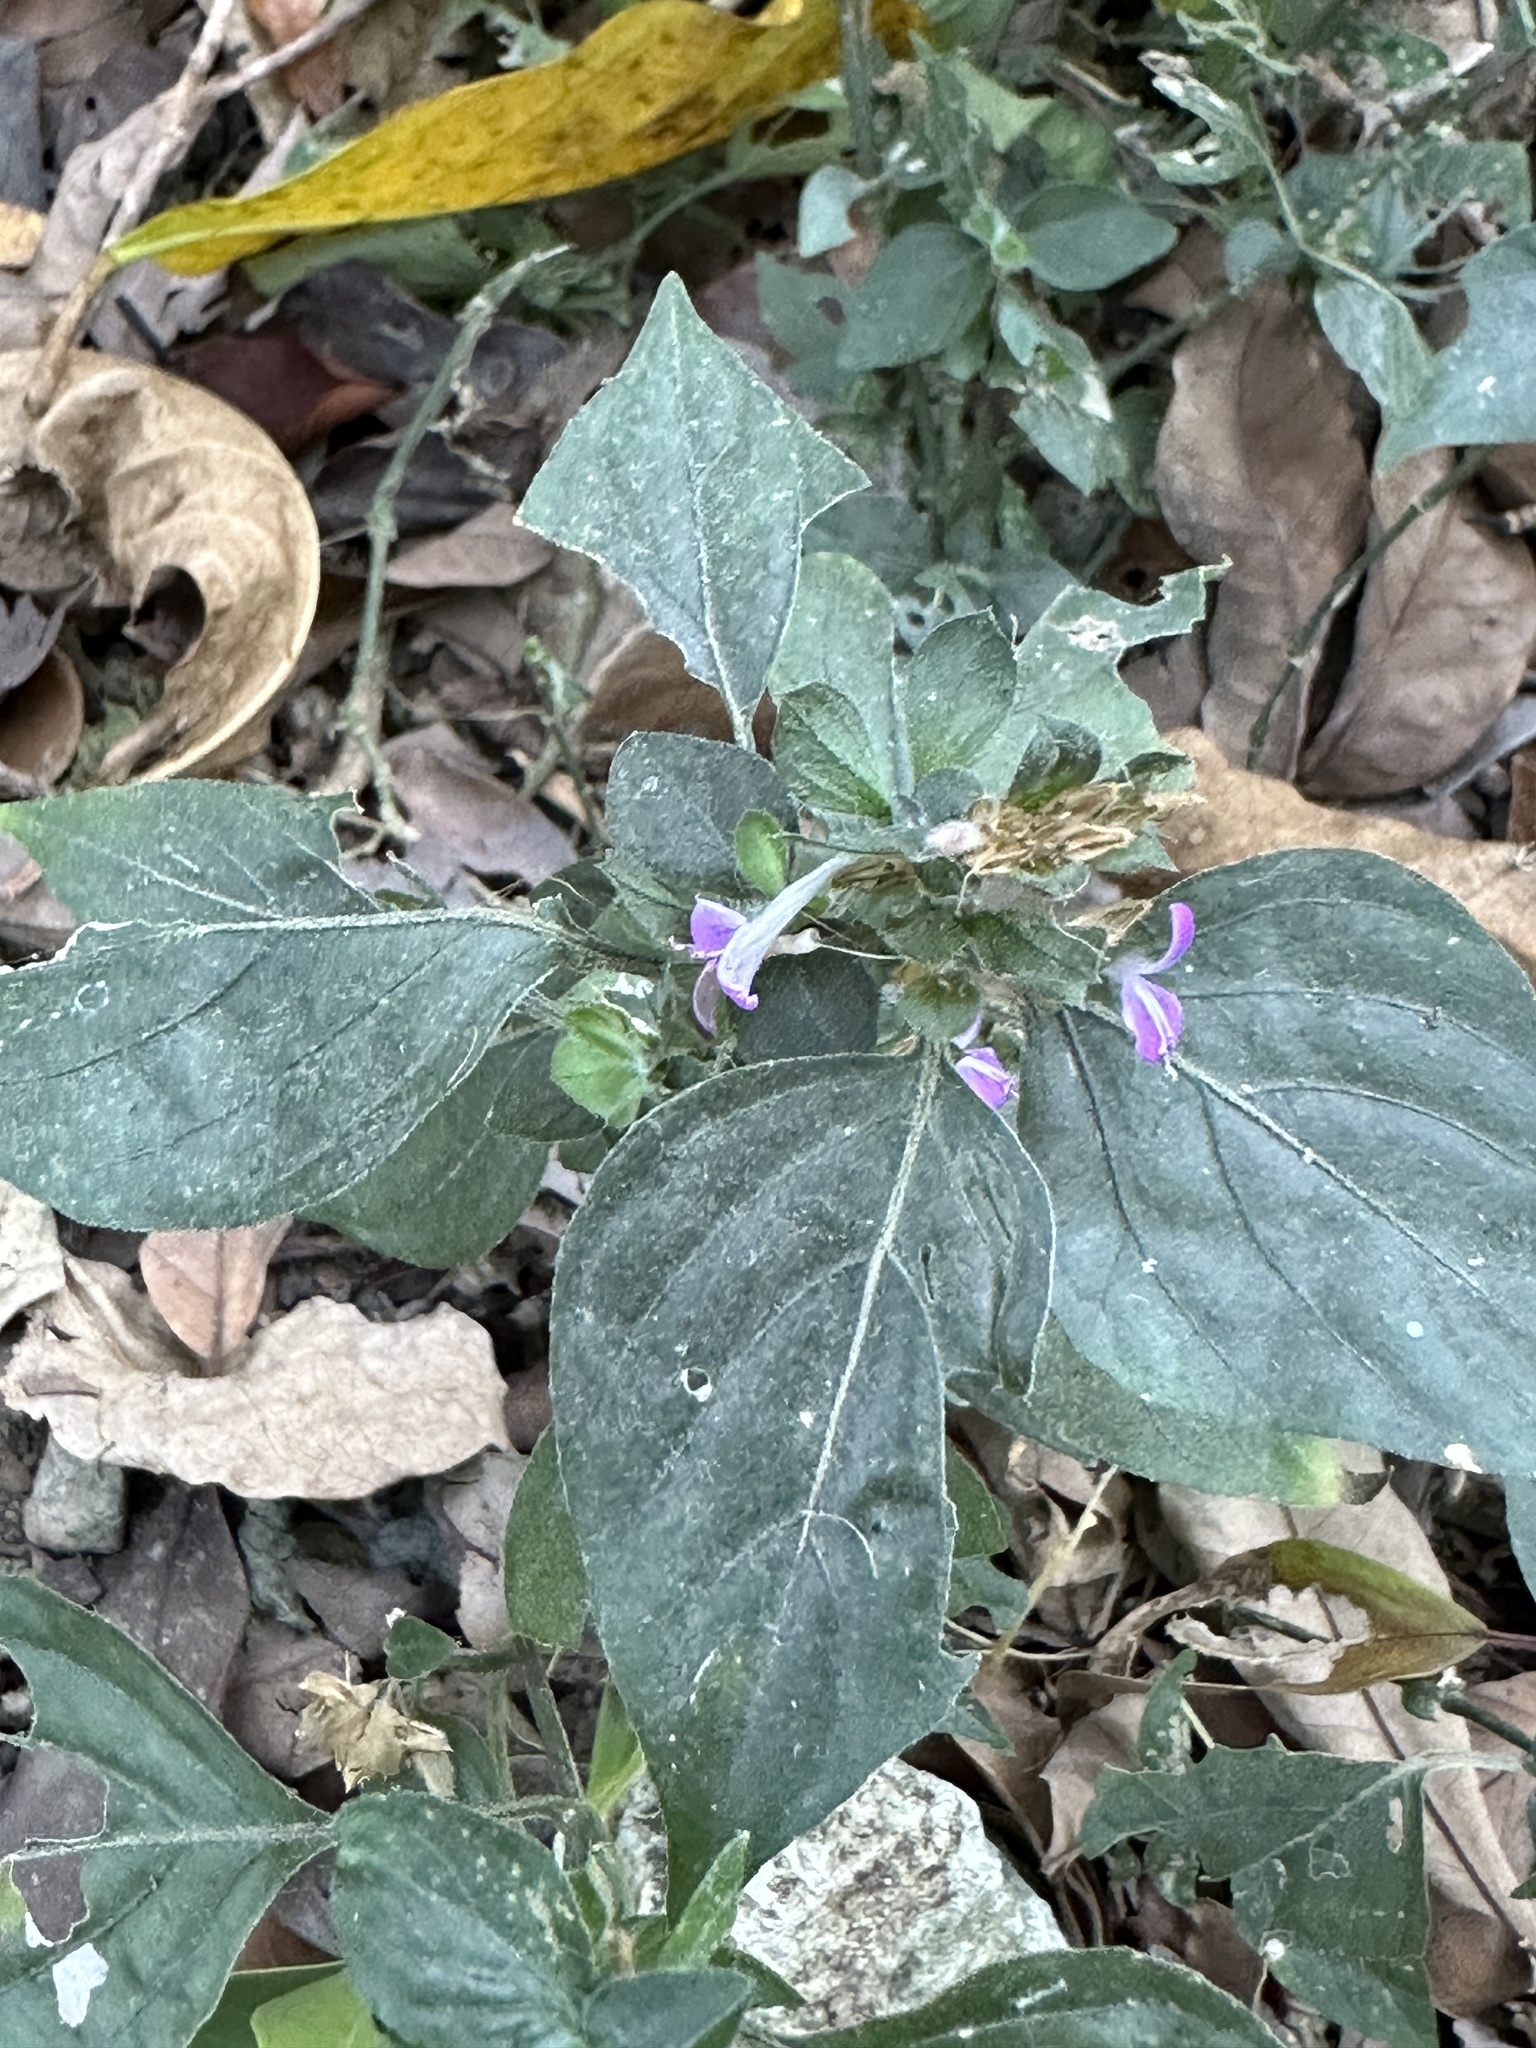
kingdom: Plantae
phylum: Tracheophyta
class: Magnoliopsida
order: Lamiales
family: Acanthaceae
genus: Dicliptera
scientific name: Dicliptera chinensis
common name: Chinese foldwing
